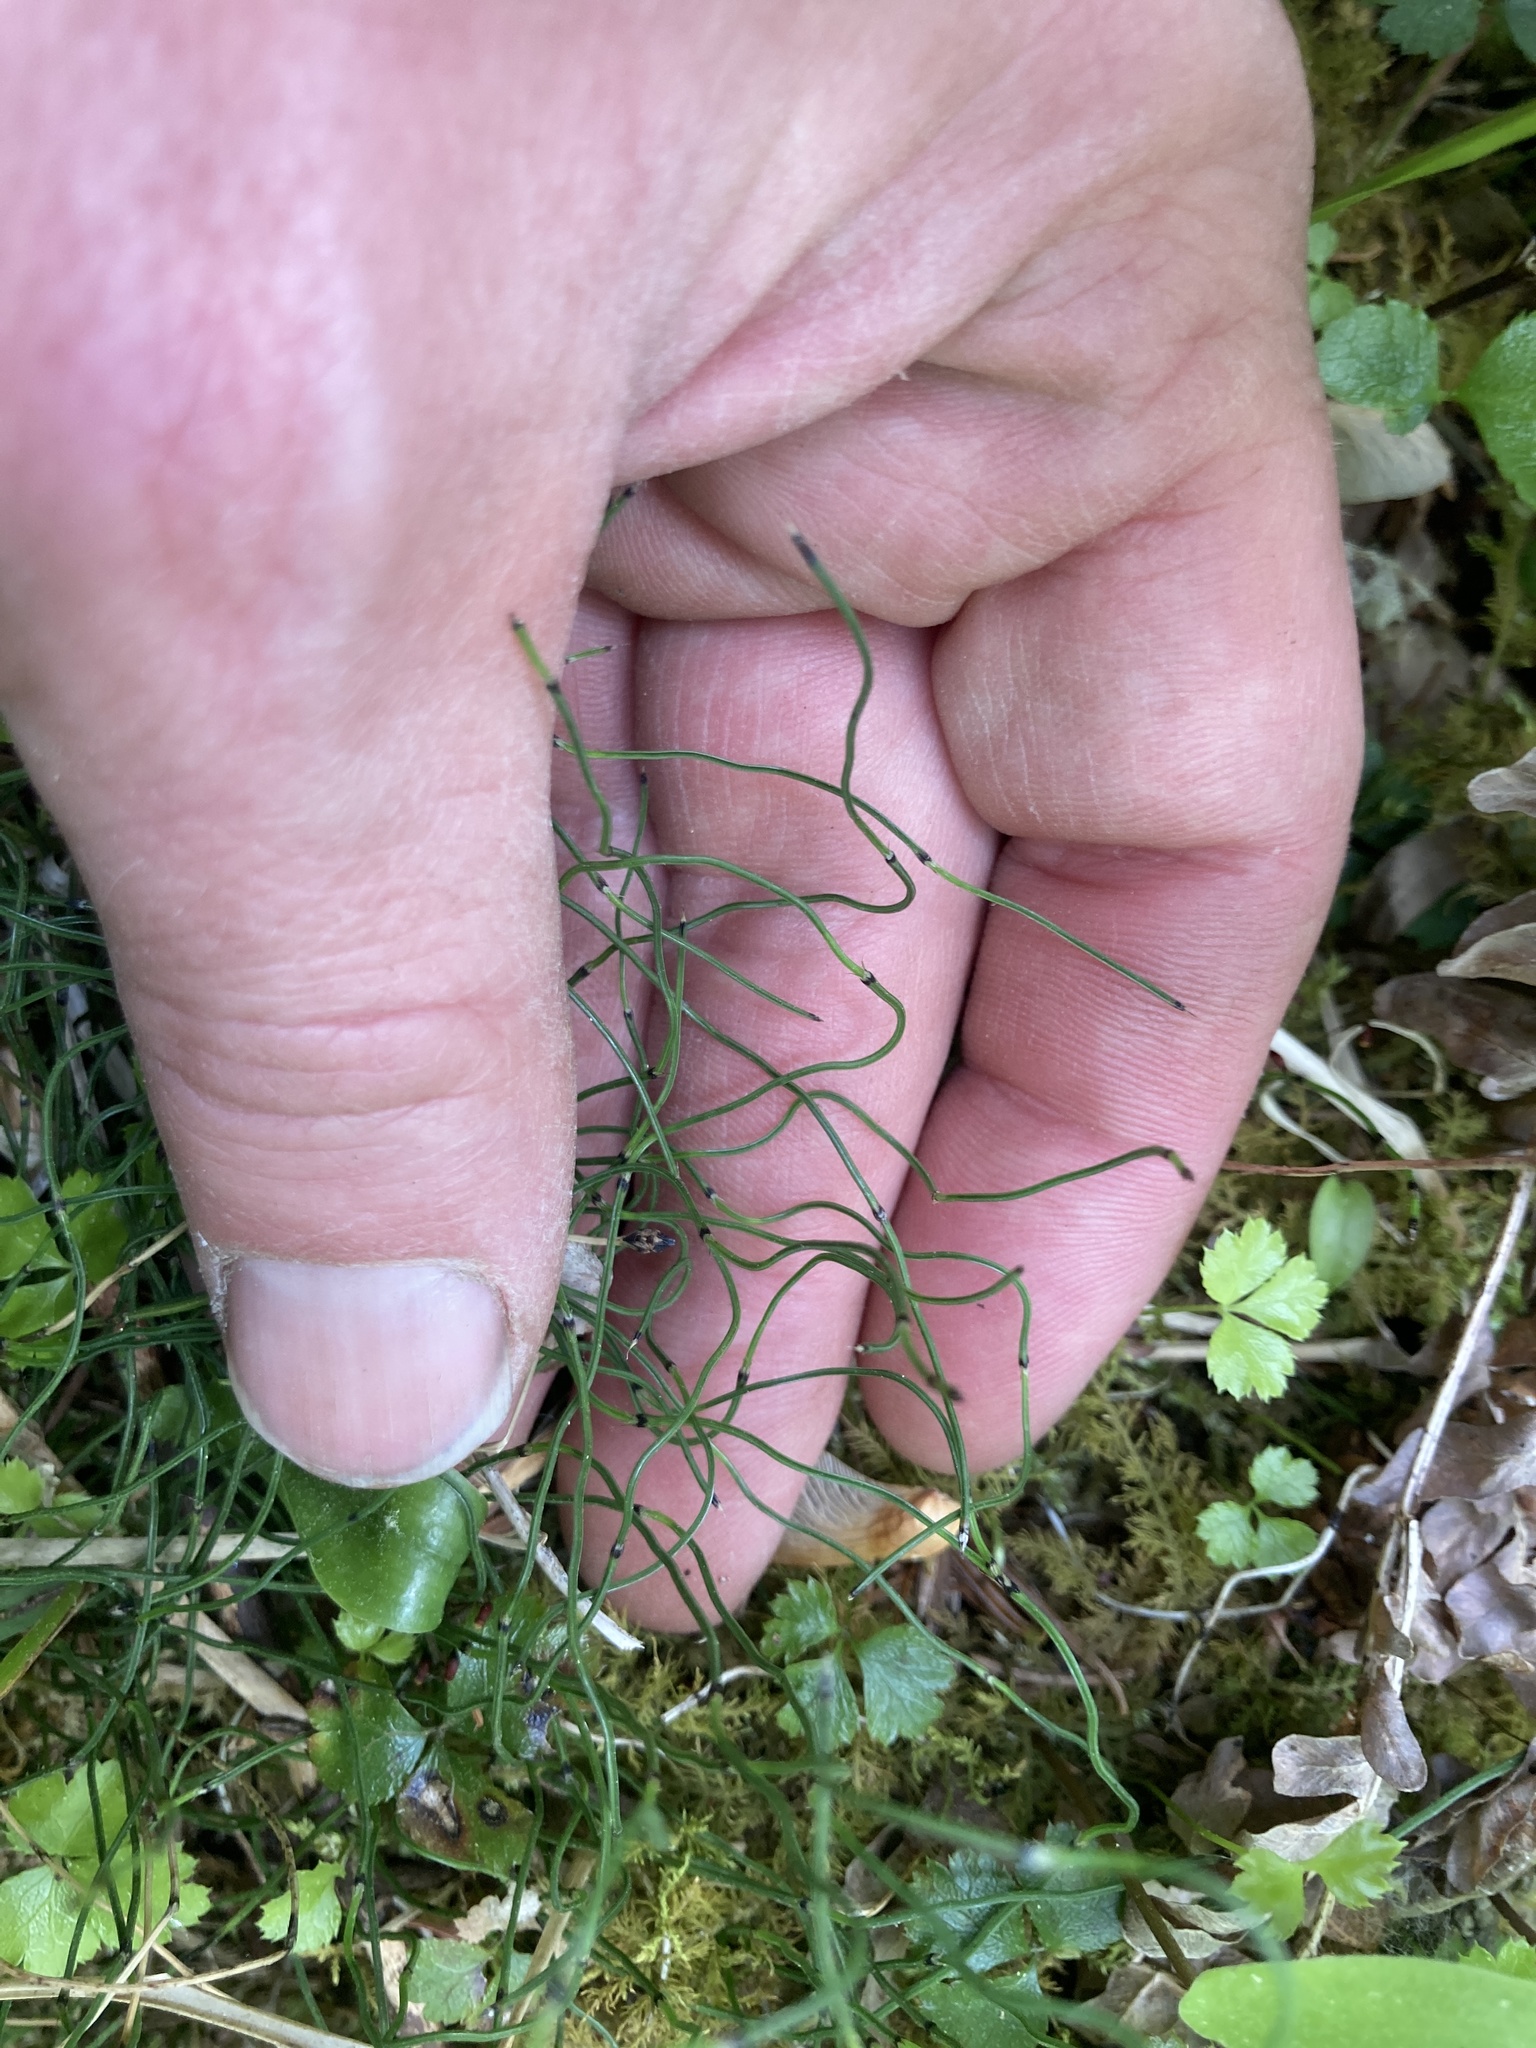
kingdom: Plantae
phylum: Tracheophyta
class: Polypodiopsida
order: Equisetales
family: Equisetaceae
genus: Equisetum
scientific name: Equisetum scirpoides
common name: Delicate horsetail
